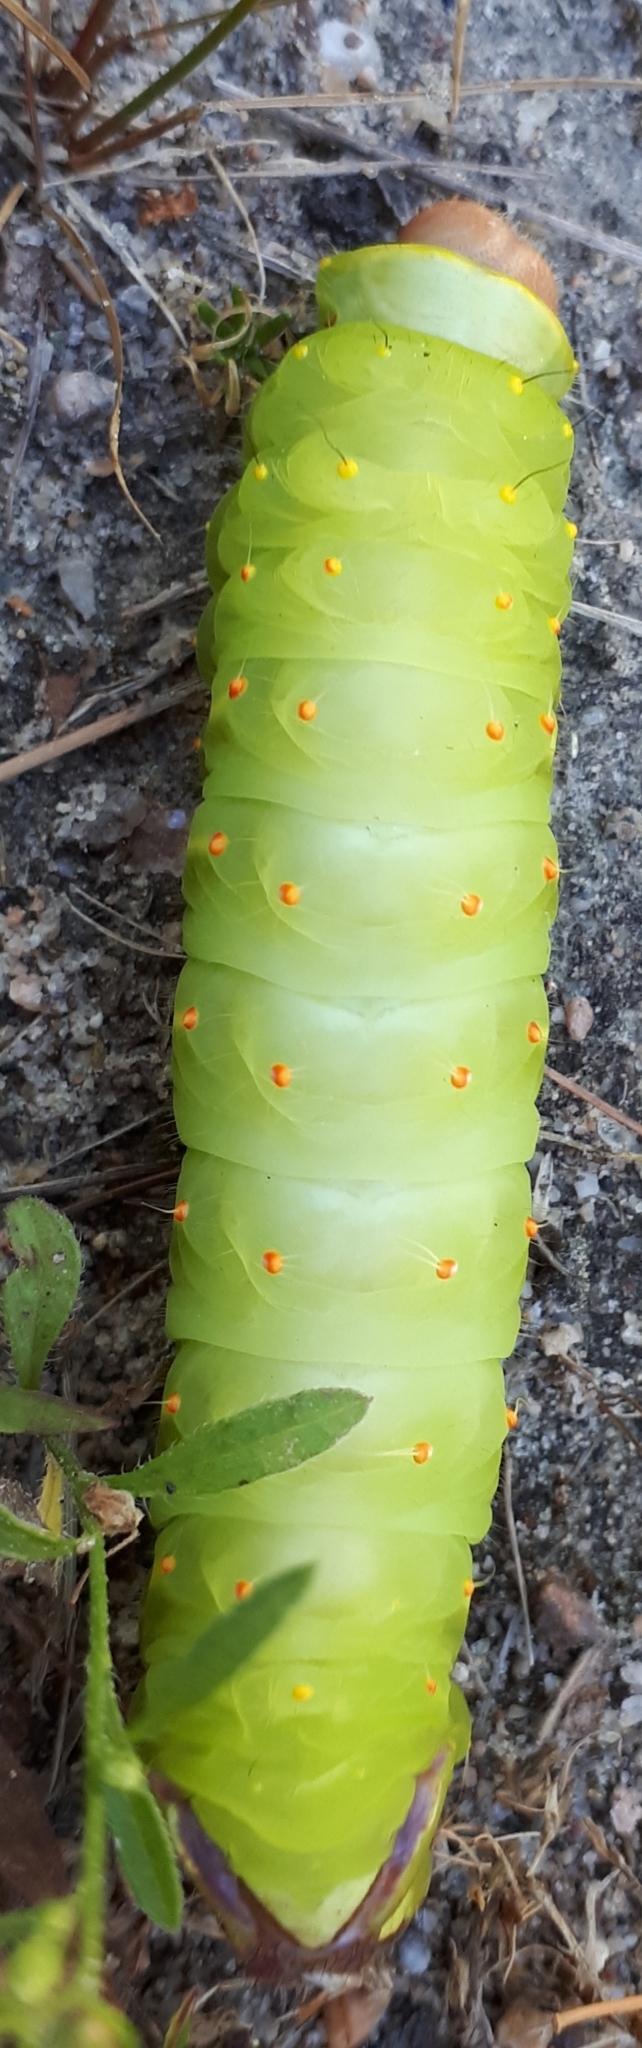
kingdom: Animalia
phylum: Arthropoda
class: Insecta
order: Lepidoptera
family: Saturniidae
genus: Antheraea
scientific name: Antheraea polyphemus
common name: Polyphemus moth
